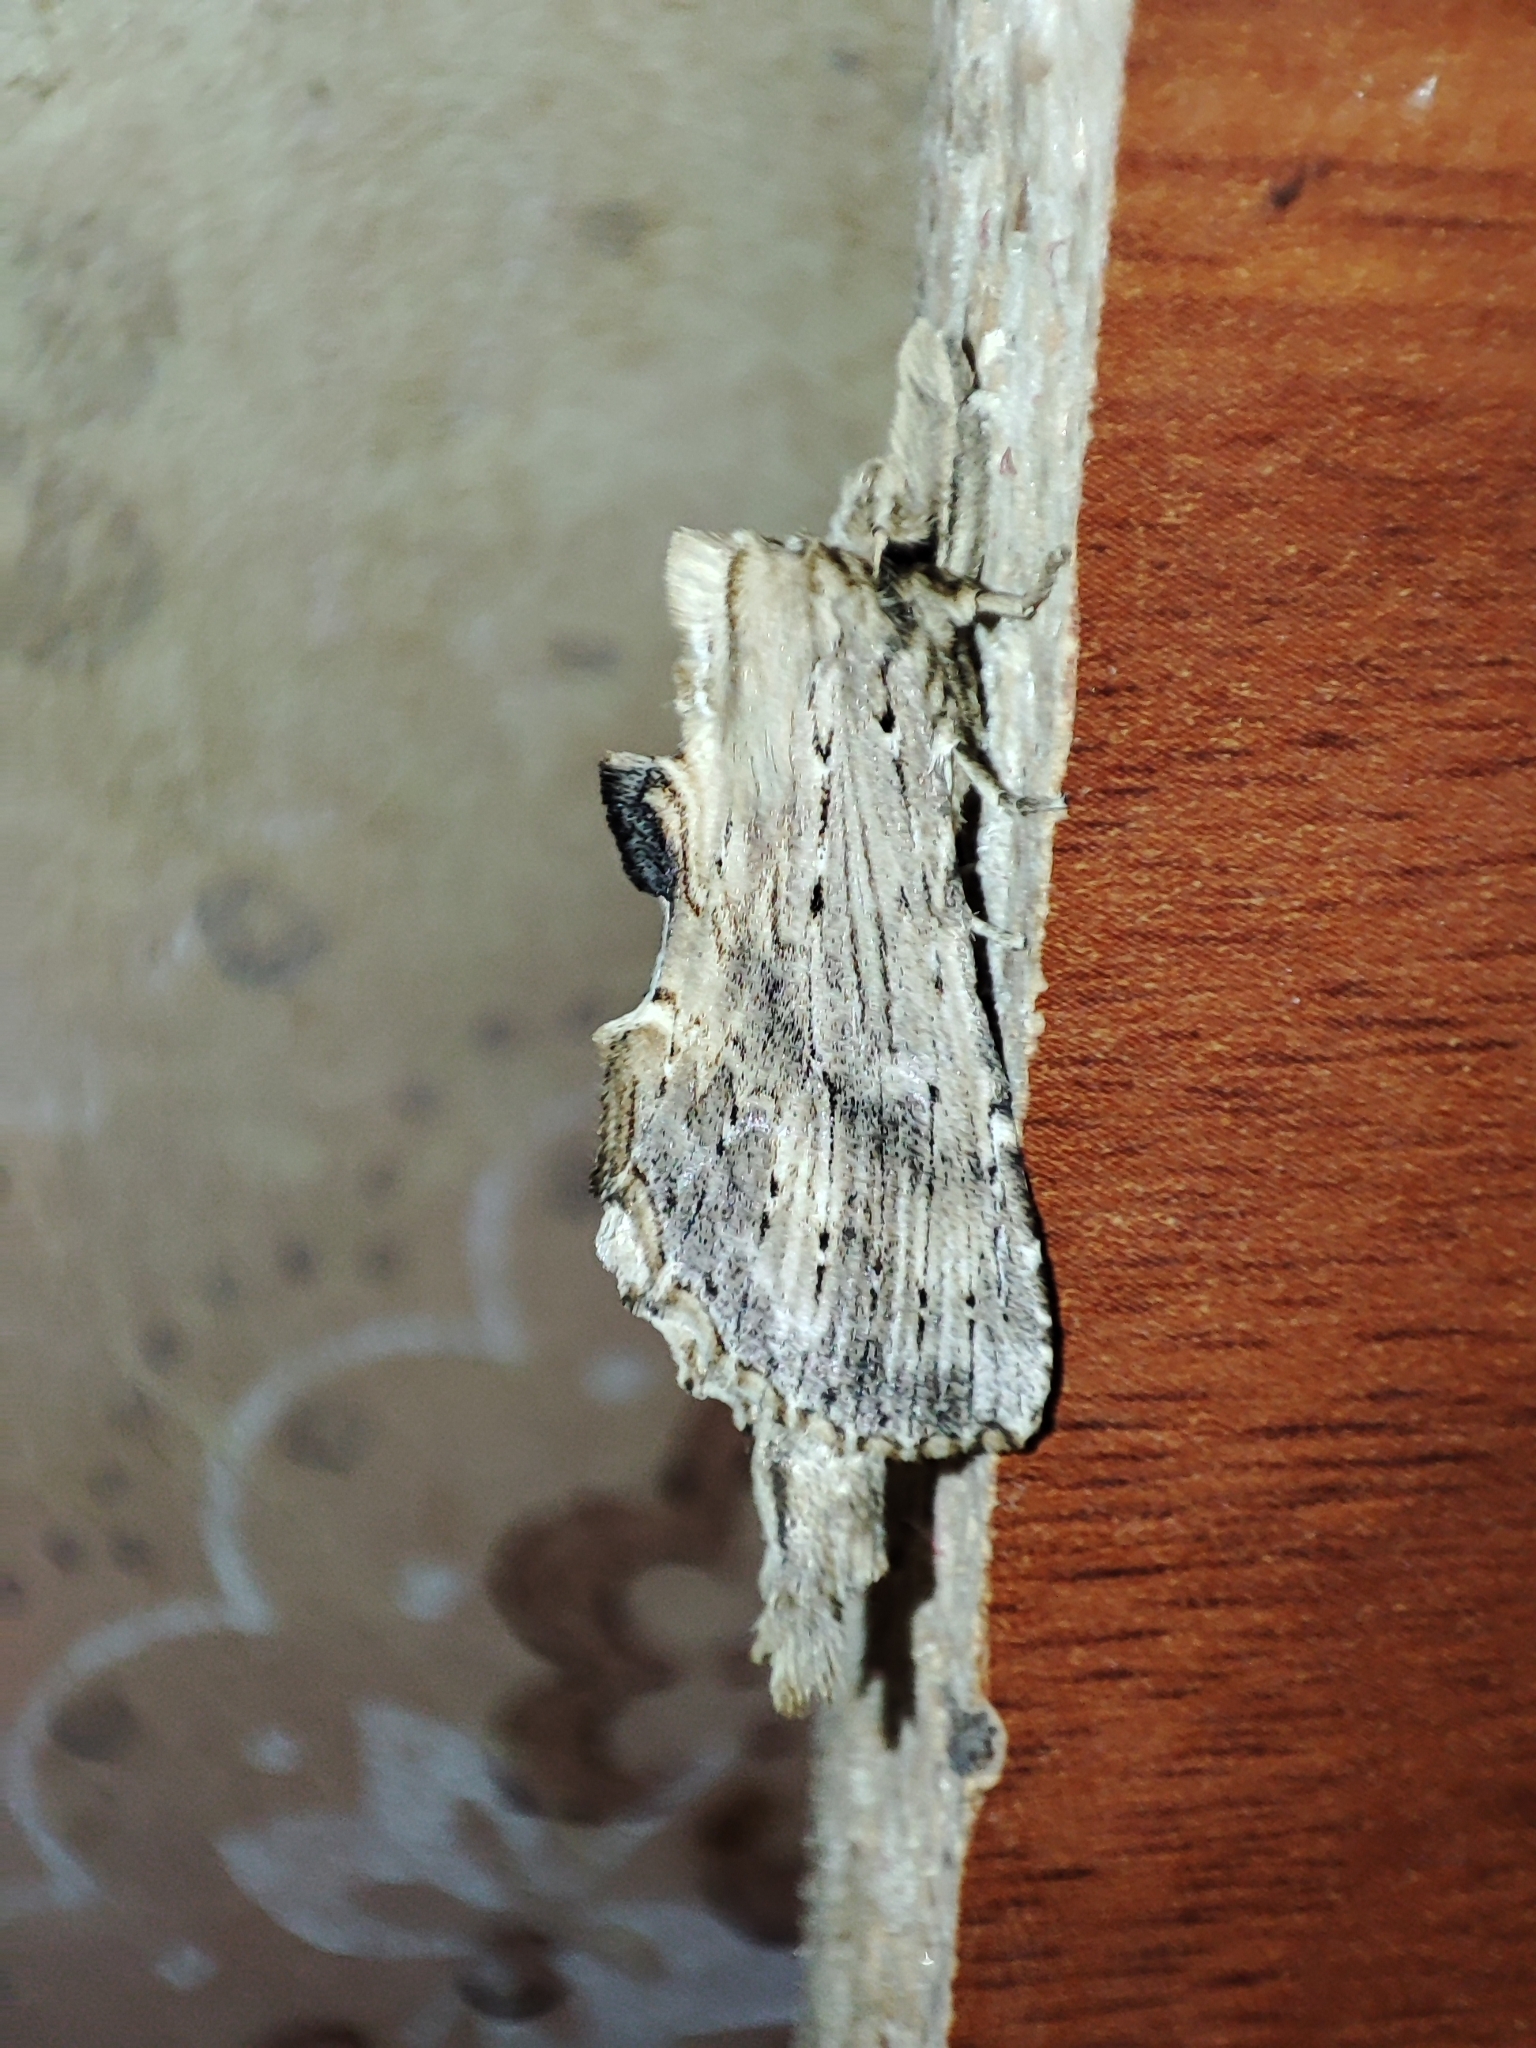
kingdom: Animalia
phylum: Arthropoda
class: Insecta
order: Lepidoptera
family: Notodontidae
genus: Pterostoma
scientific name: Pterostoma palpina
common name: Pale prominent
